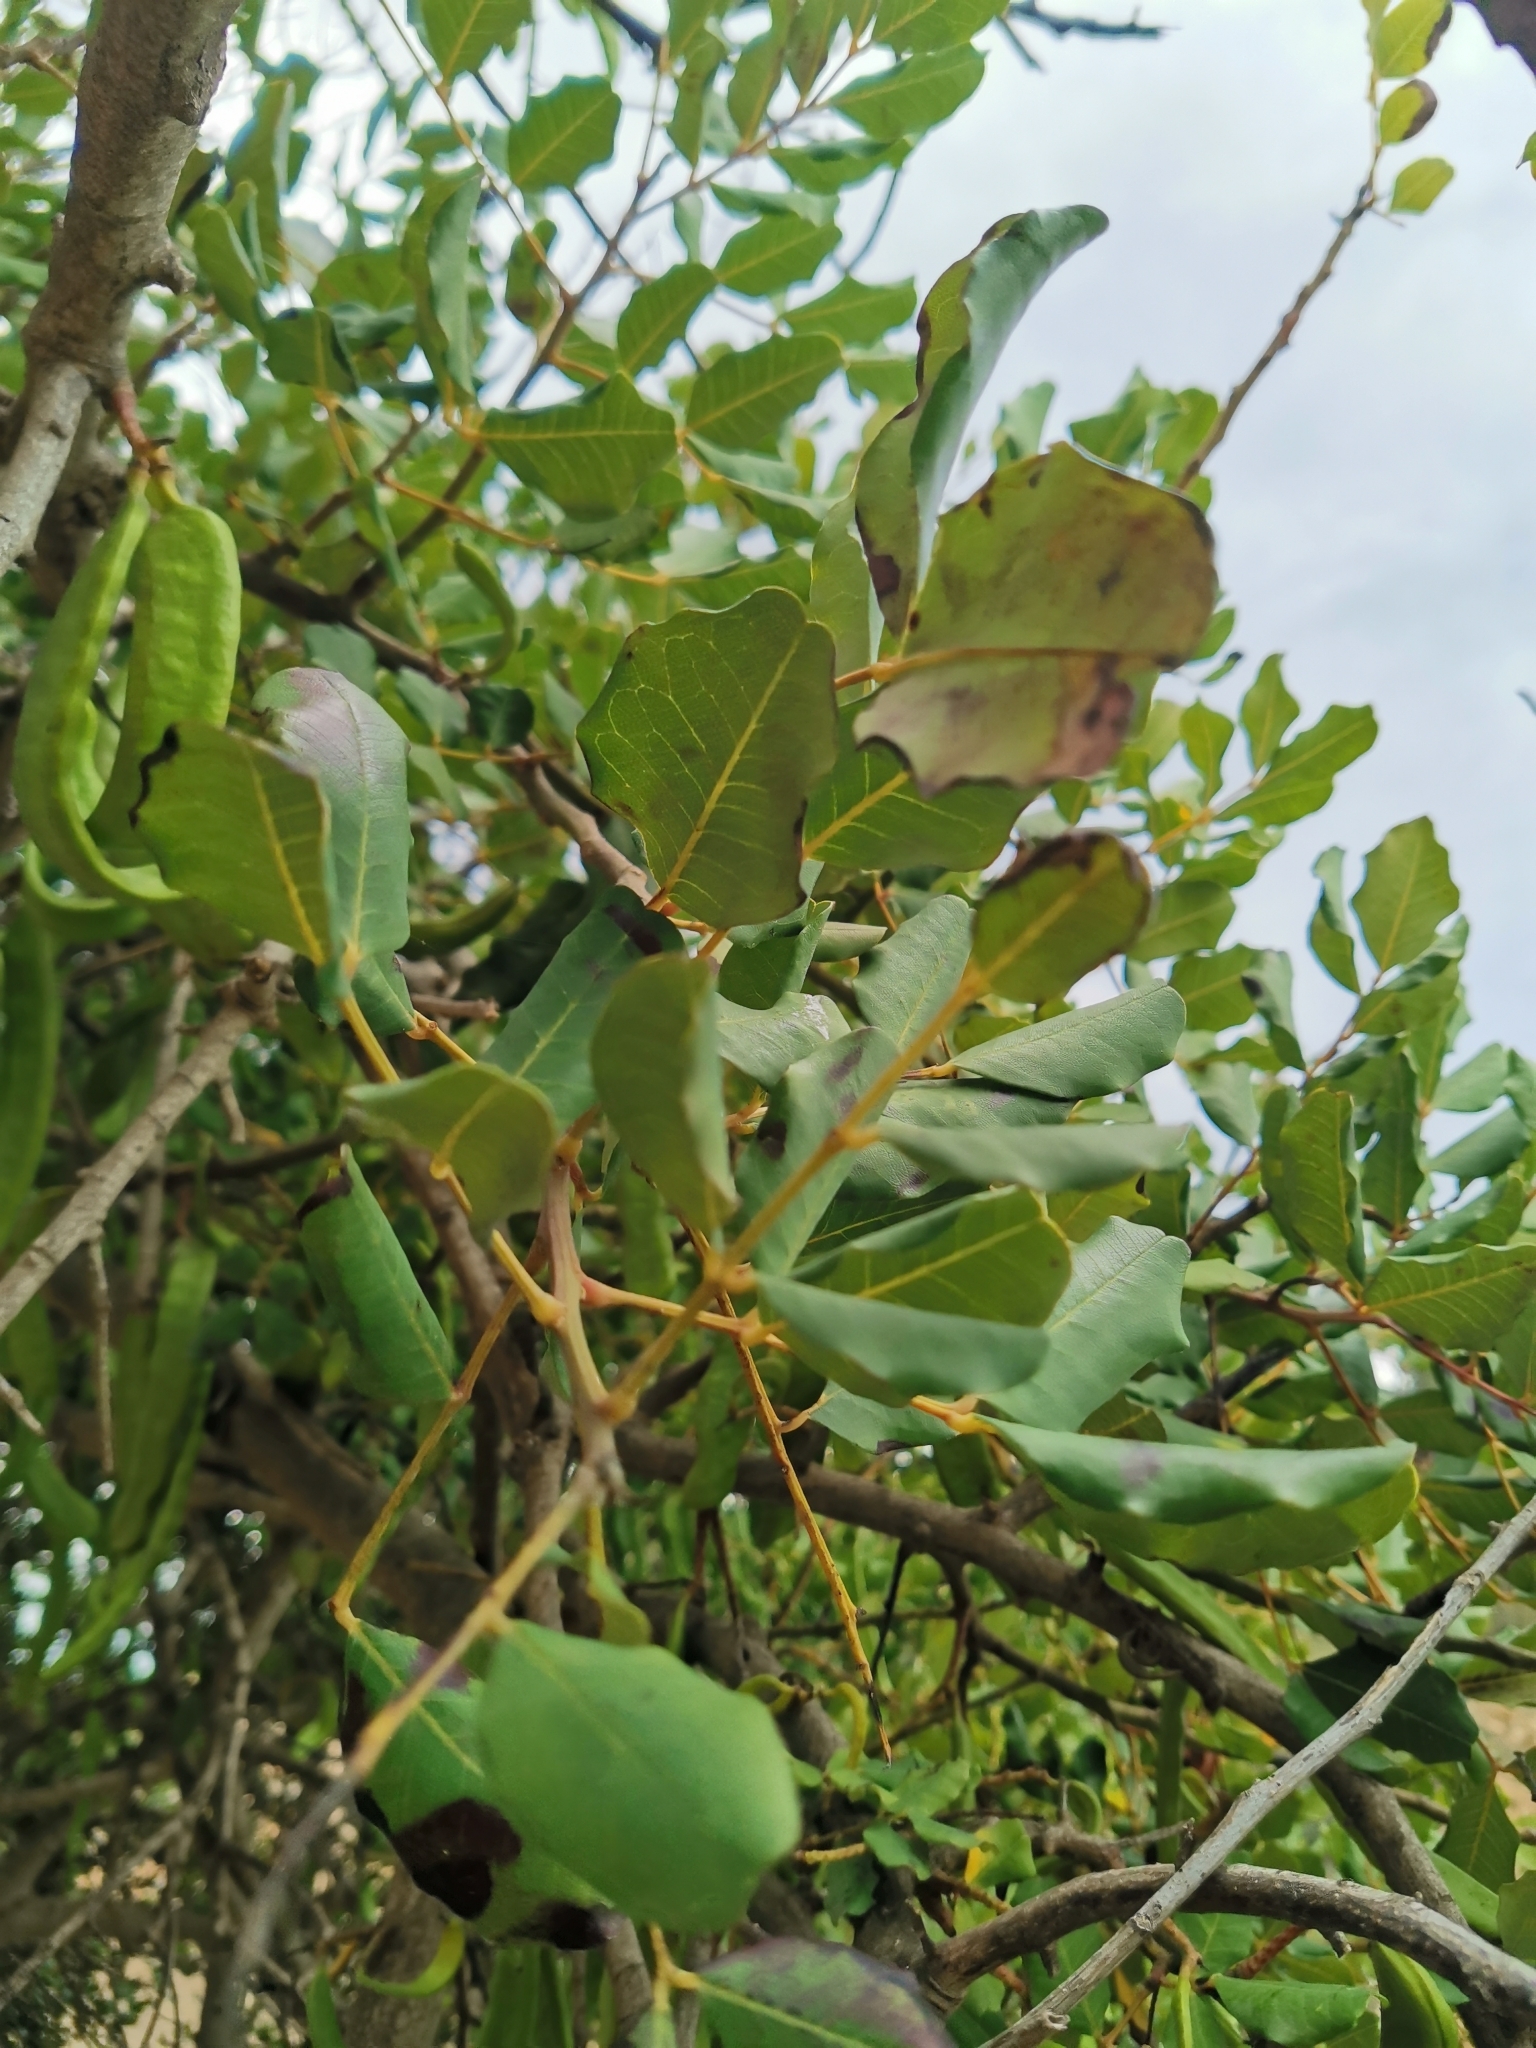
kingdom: Plantae
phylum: Tracheophyta
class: Magnoliopsida
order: Fabales
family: Fabaceae
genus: Ceratonia
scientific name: Ceratonia siliqua
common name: Carob
